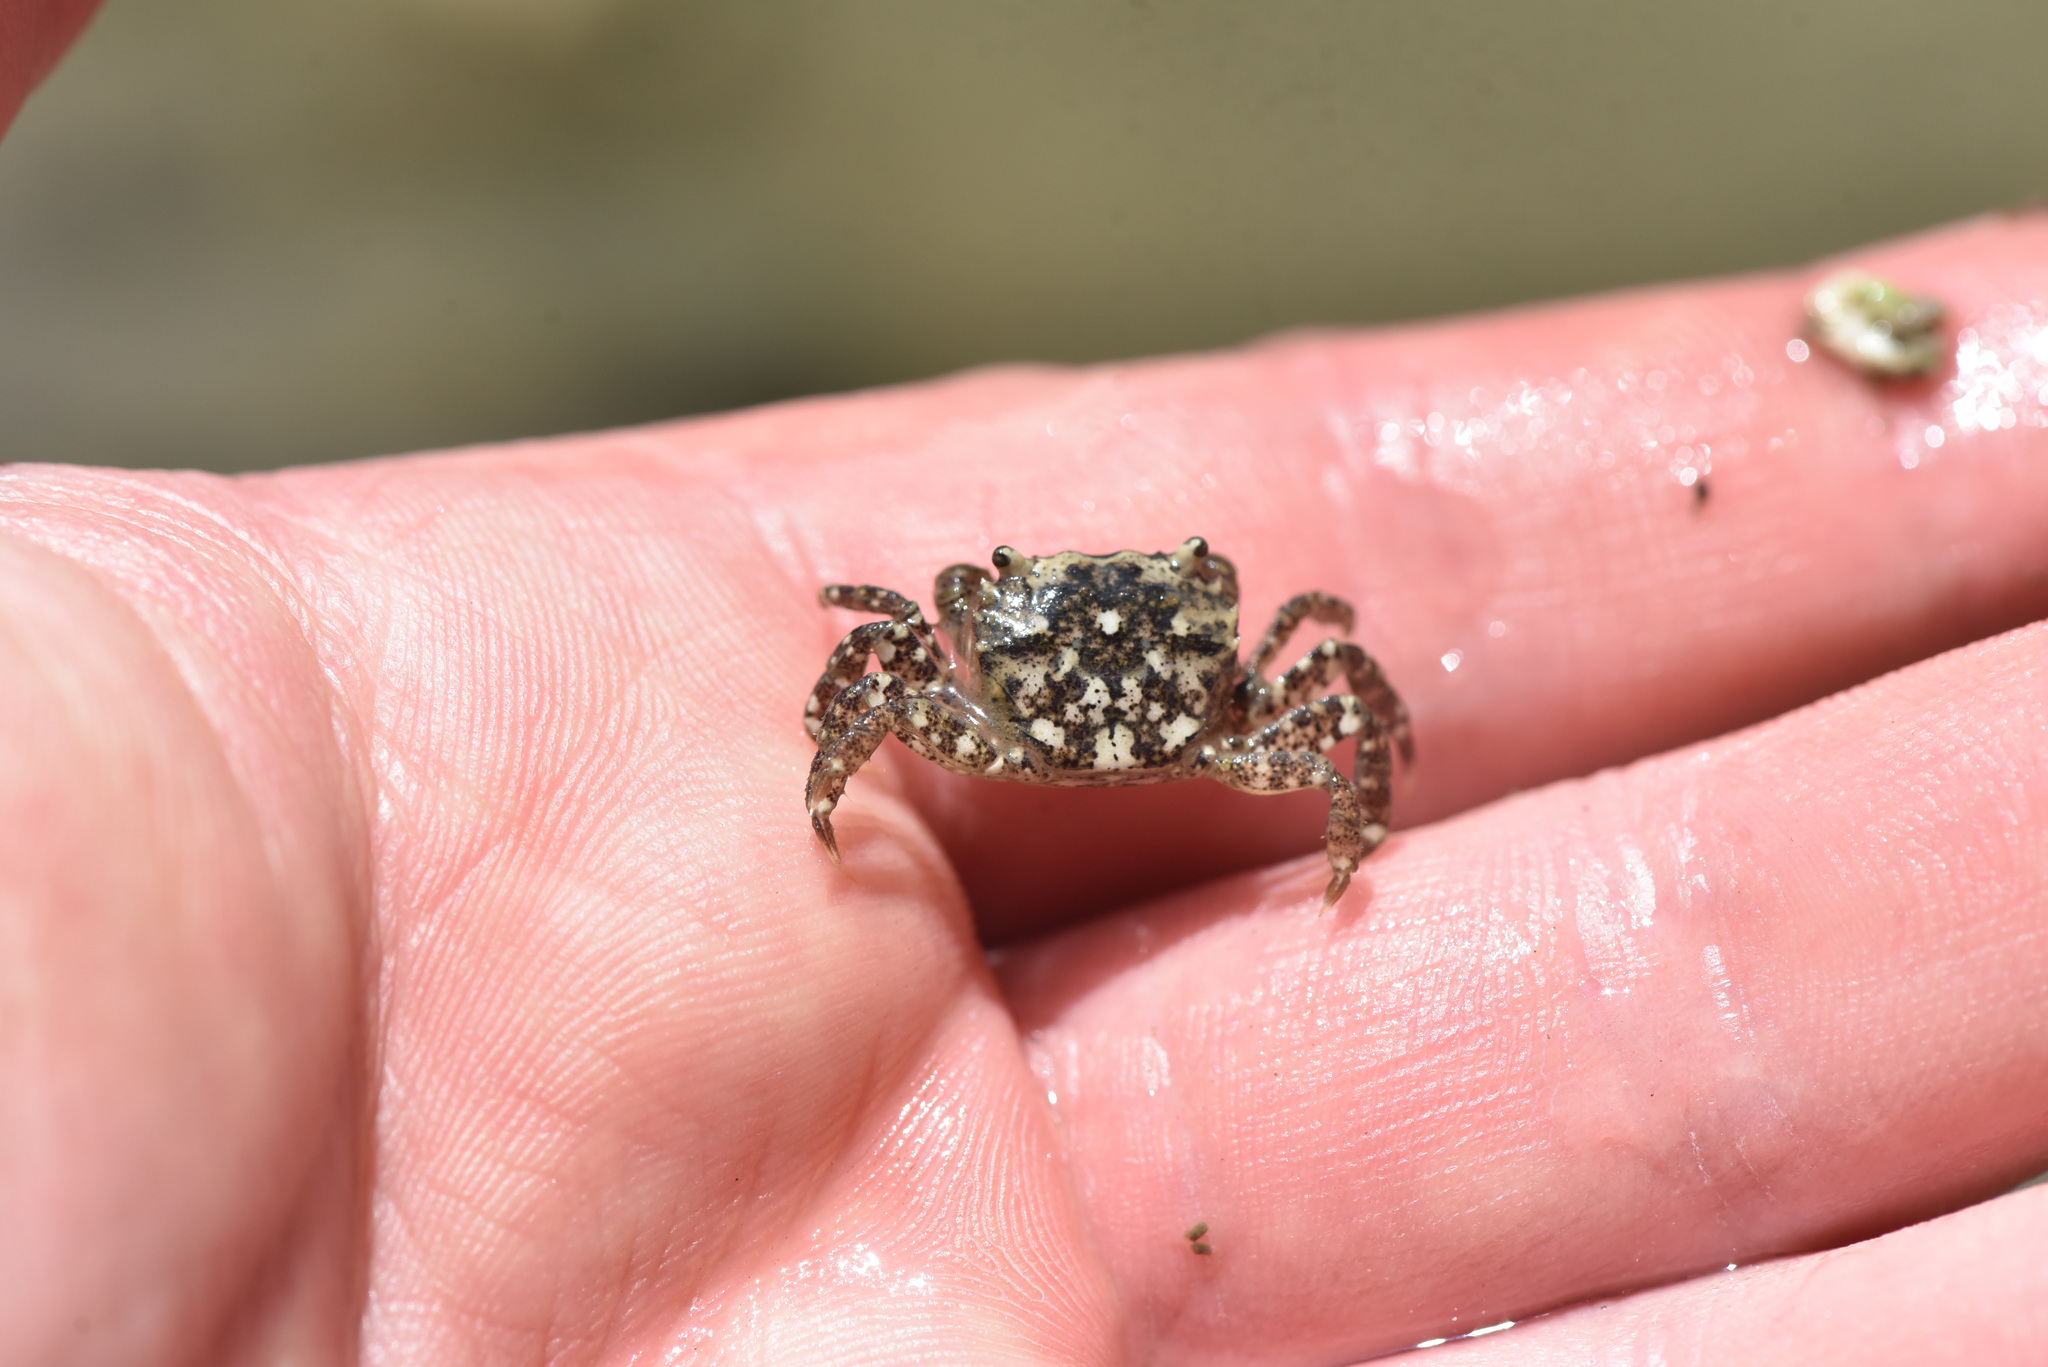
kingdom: Animalia
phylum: Arthropoda
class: Malacostraca
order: Decapoda
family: Varunidae
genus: Hemigrapsus
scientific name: Hemigrapsus oregonensis
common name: Yellow shore crab
